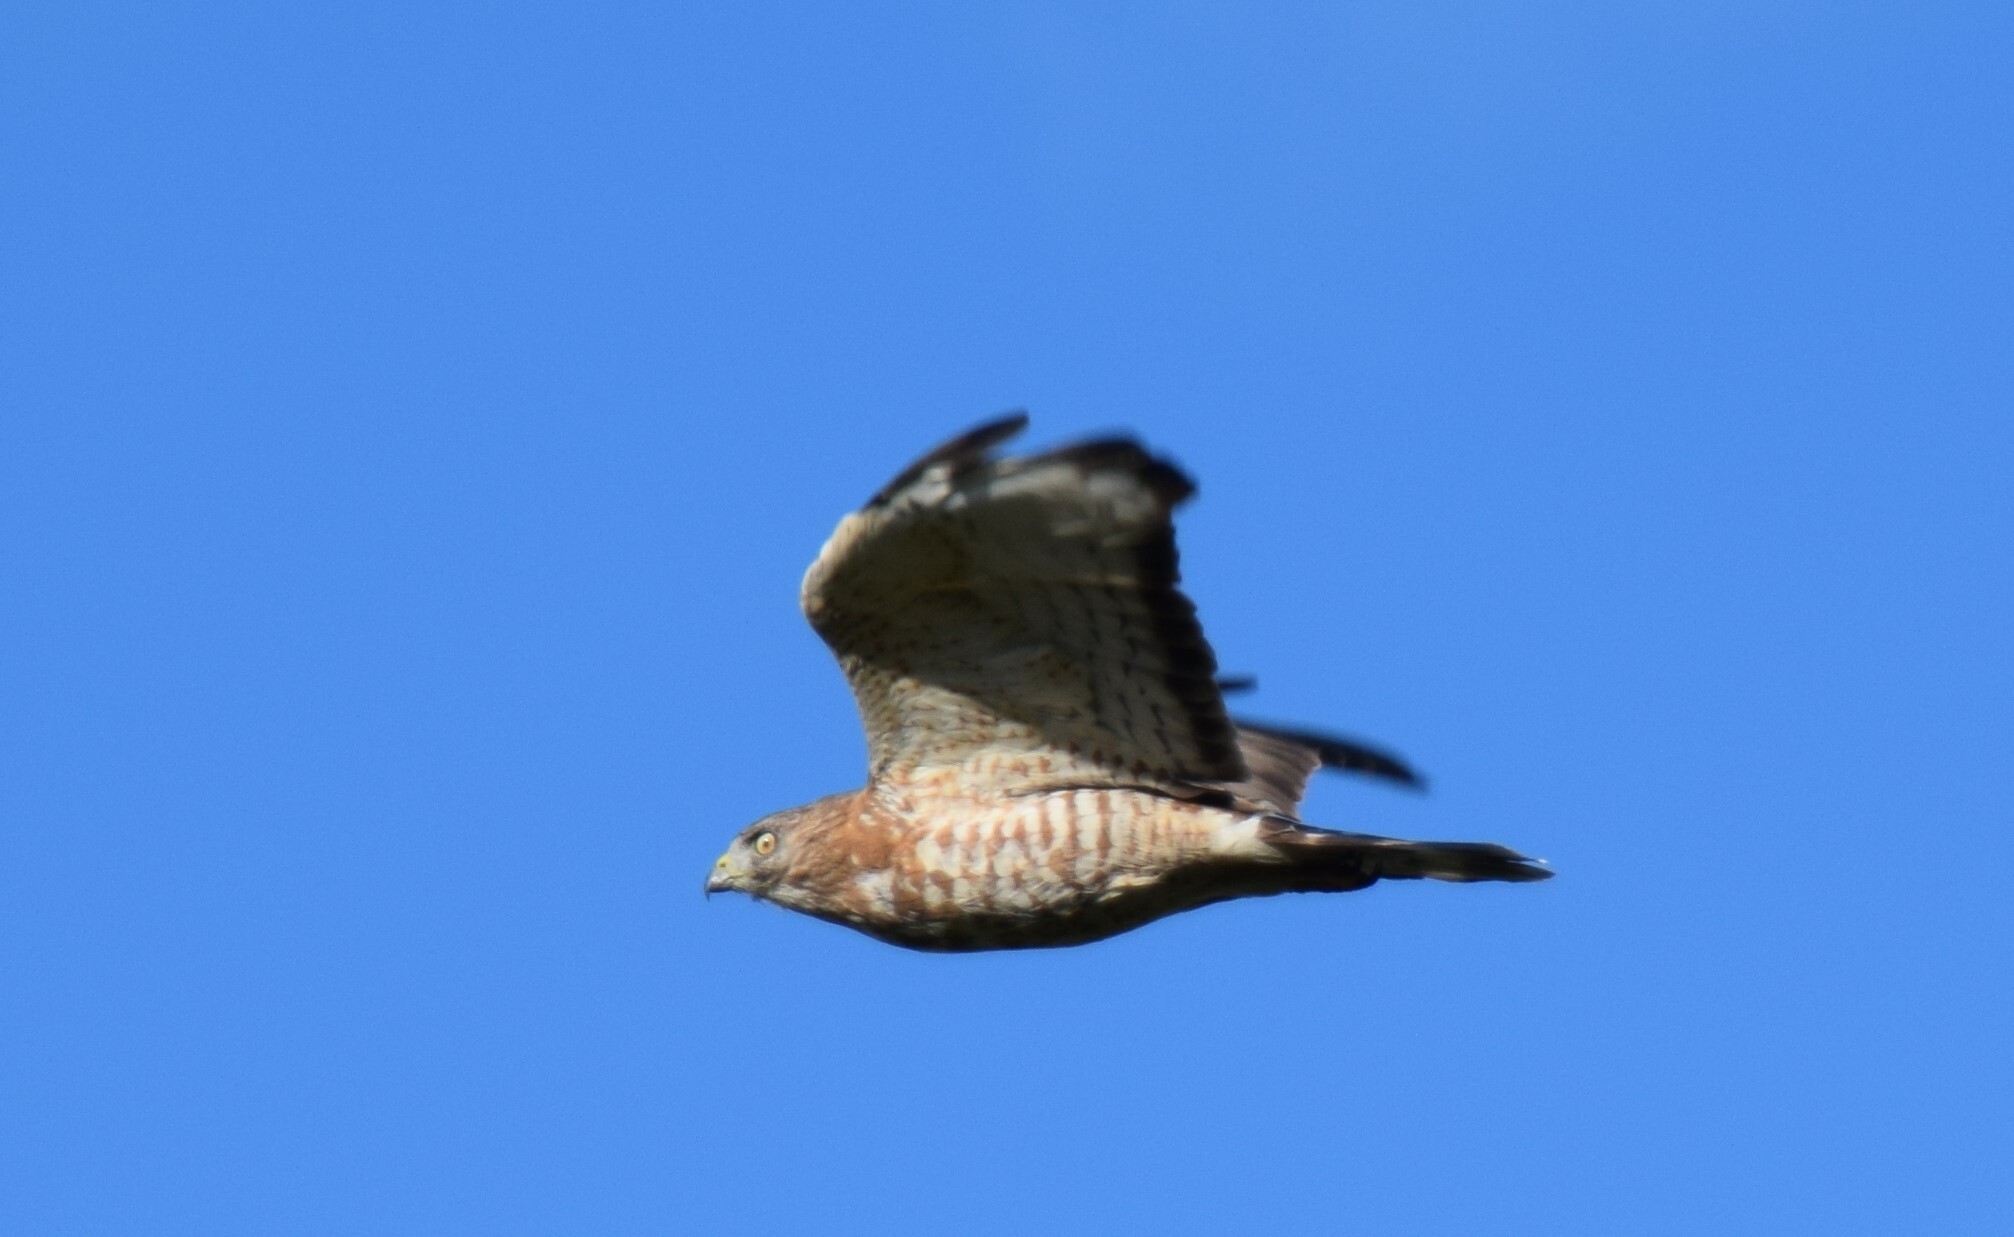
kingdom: Animalia
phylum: Chordata
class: Aves
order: Accipitriformes
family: Accipitridae
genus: Buteo
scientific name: Buteo platypterus
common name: Broad-winged hawk
